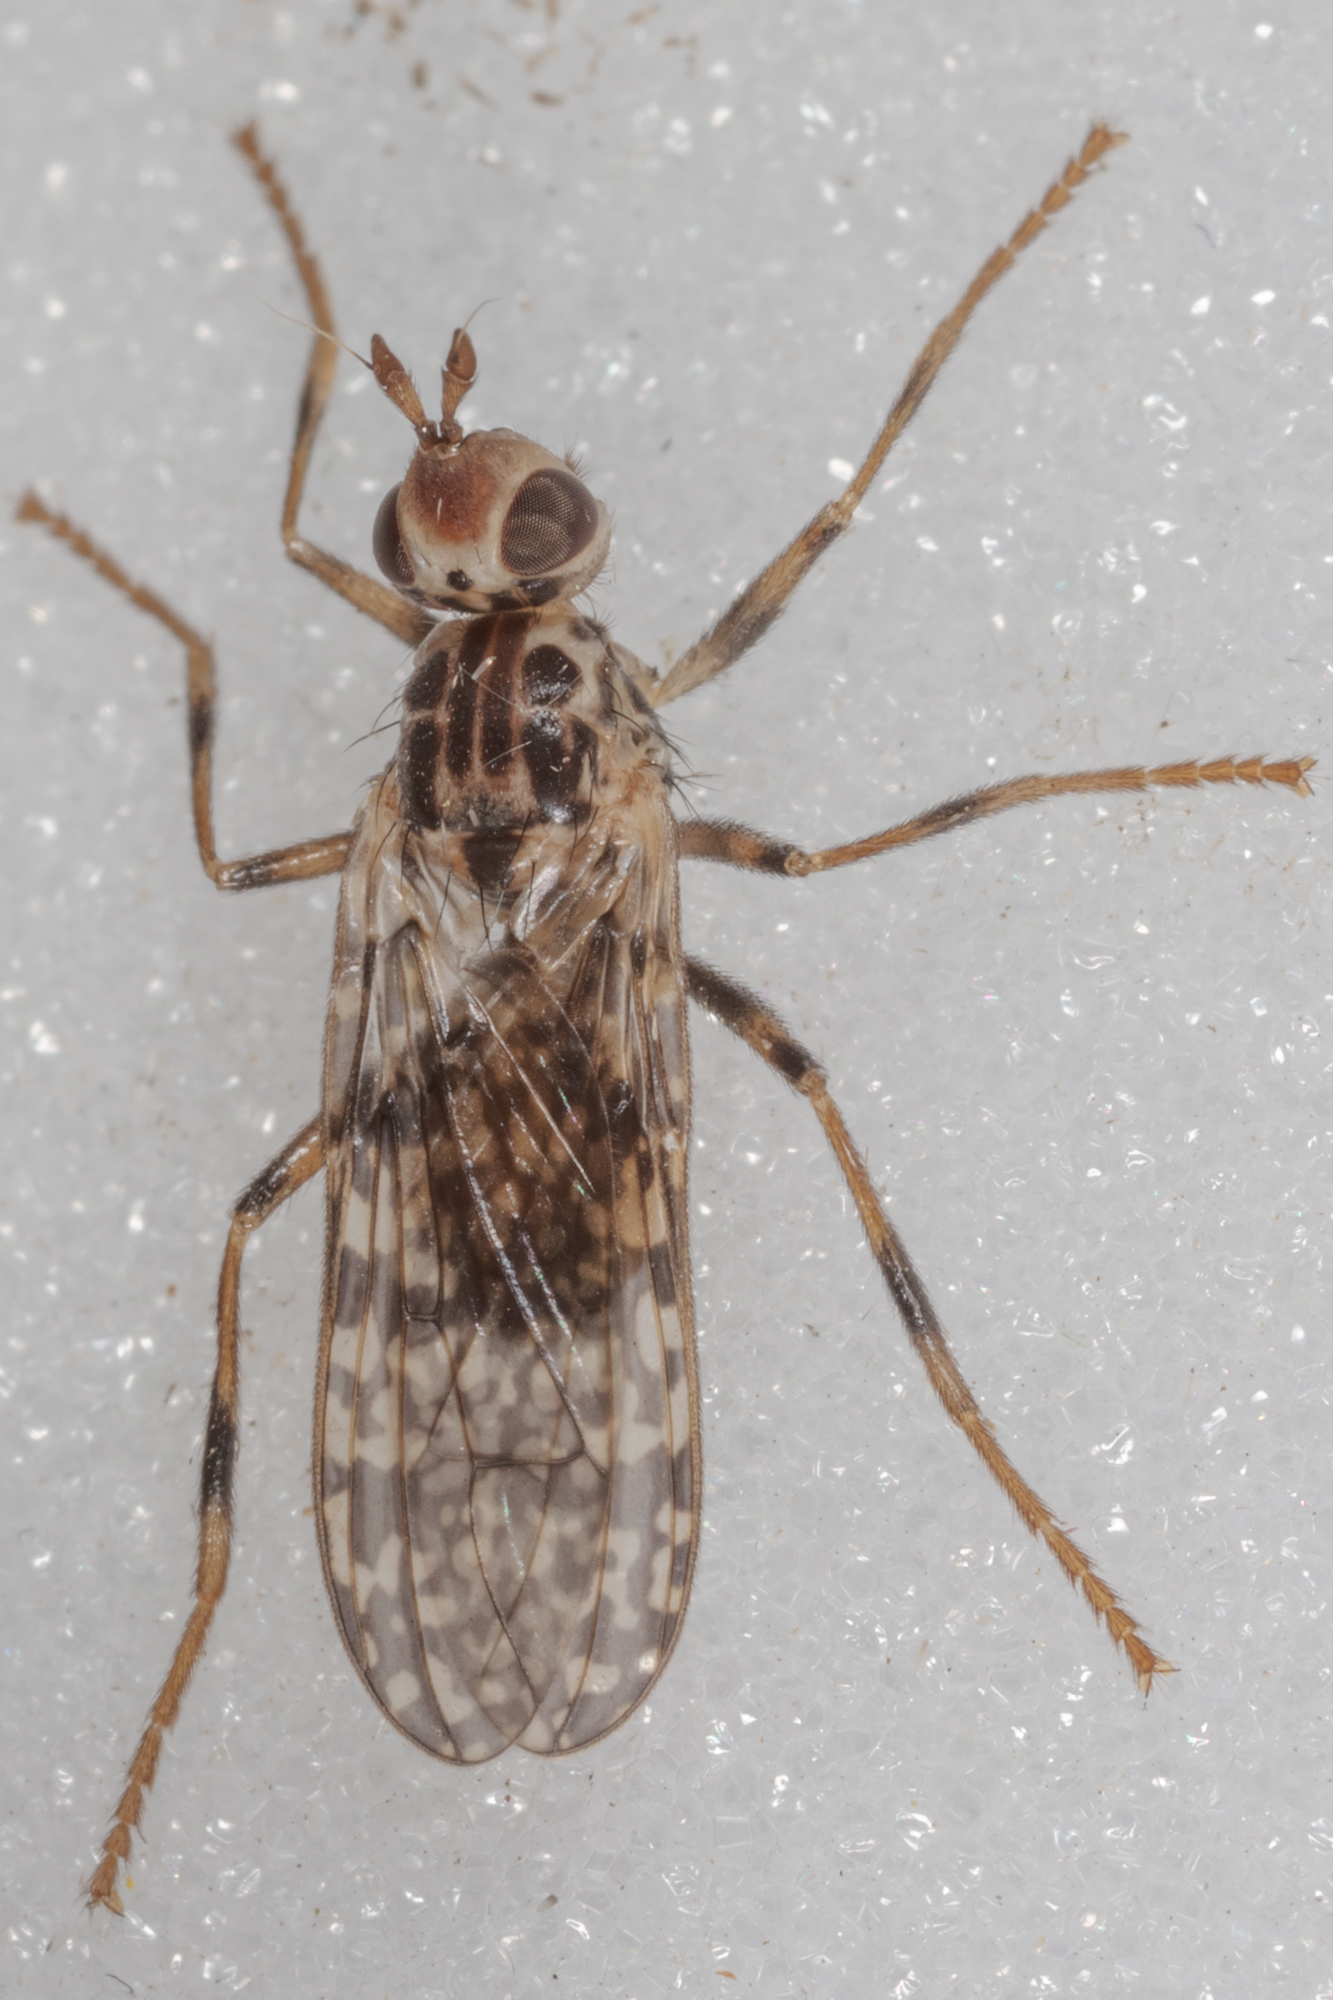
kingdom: Animalia
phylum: Arthropoda
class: Insecta
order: Diptera
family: Pyrgotidae
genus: Boreothrinax
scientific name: Boreothrinax
